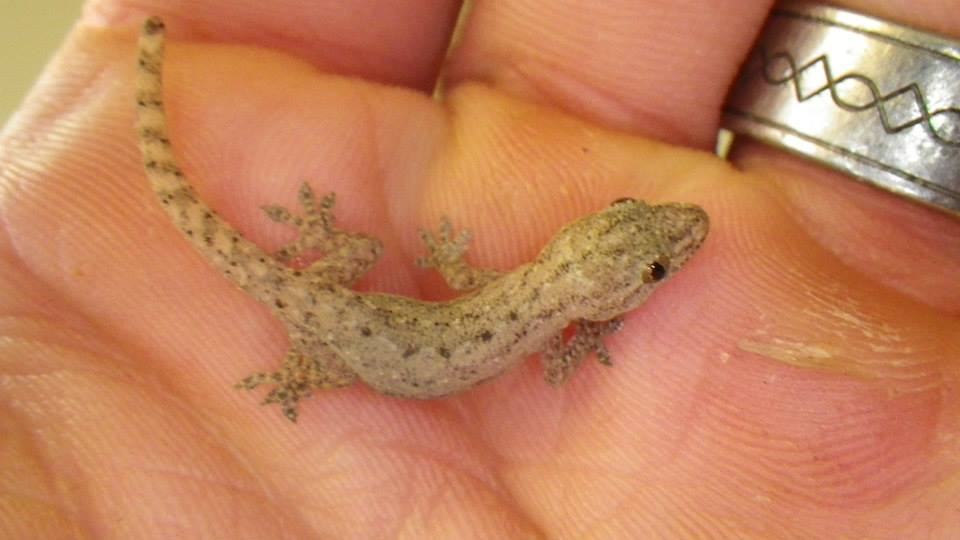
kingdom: Animalia
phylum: Chordata
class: Squamata
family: Gekkonidae
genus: Hemidactylus
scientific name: Hemidactylus frenatus
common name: Common house gecko
